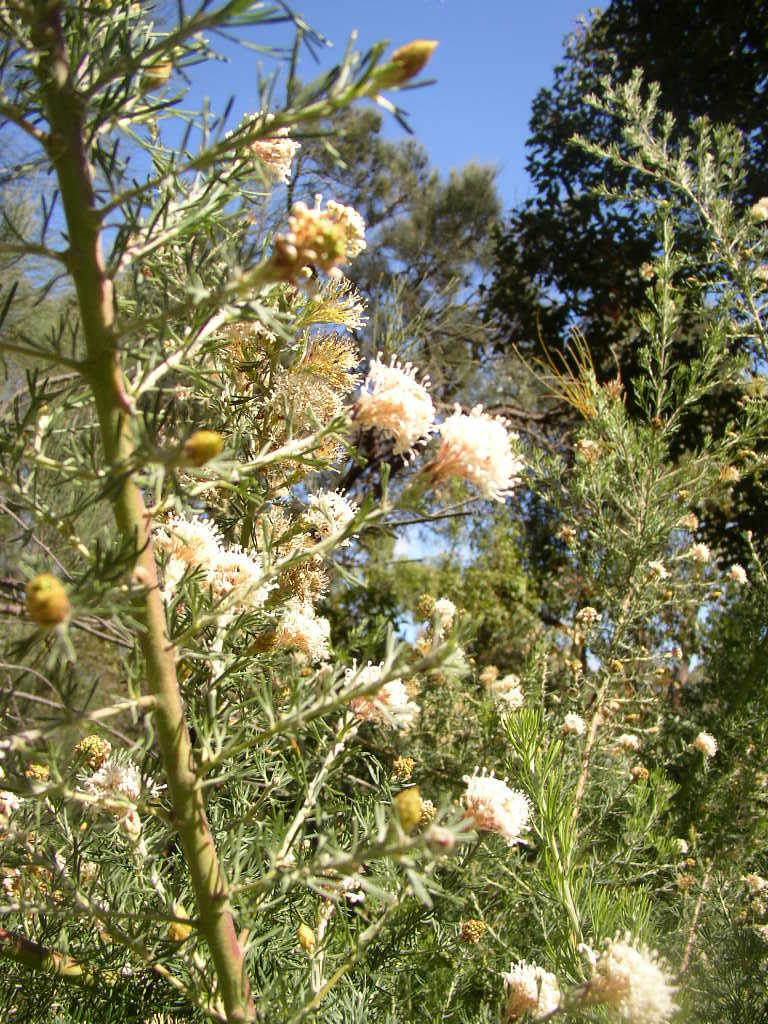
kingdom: Plantae
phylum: Tracheophyta
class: Magnoliopsida
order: Proteales
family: Proteaceae
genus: Grevillea
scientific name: Grevillea crithmifolia
